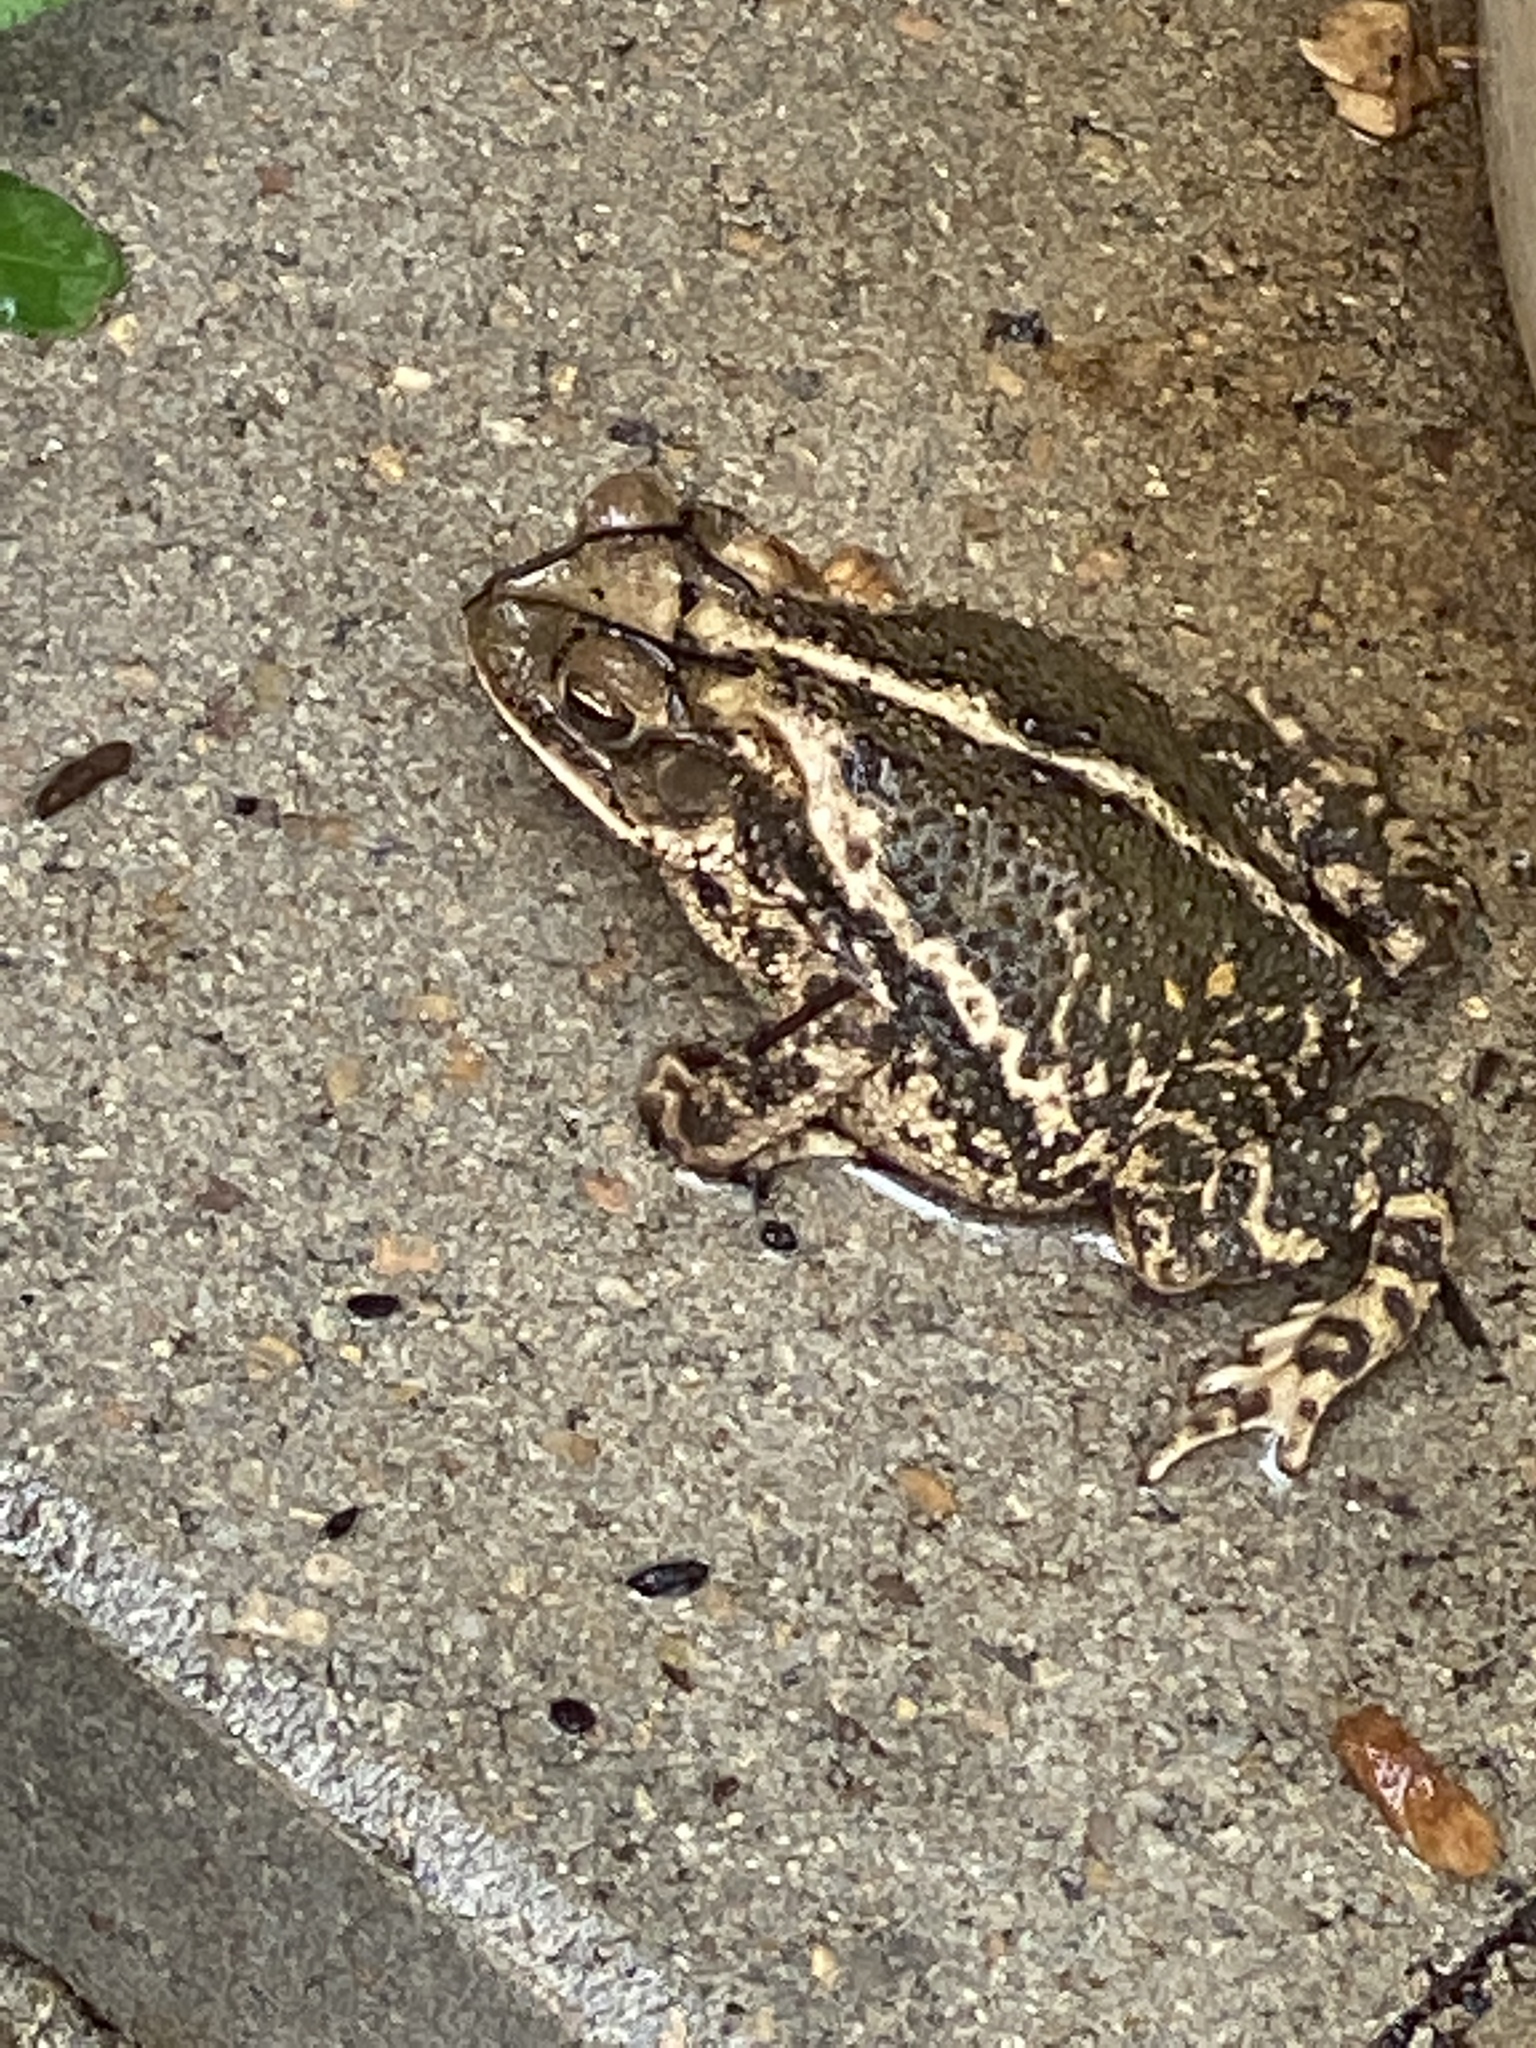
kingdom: Animalia
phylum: Chordata
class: Amphibia
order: Anura
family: Bufonidae
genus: Incilius
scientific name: Incilius nebulifer
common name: Gulf coast toad
